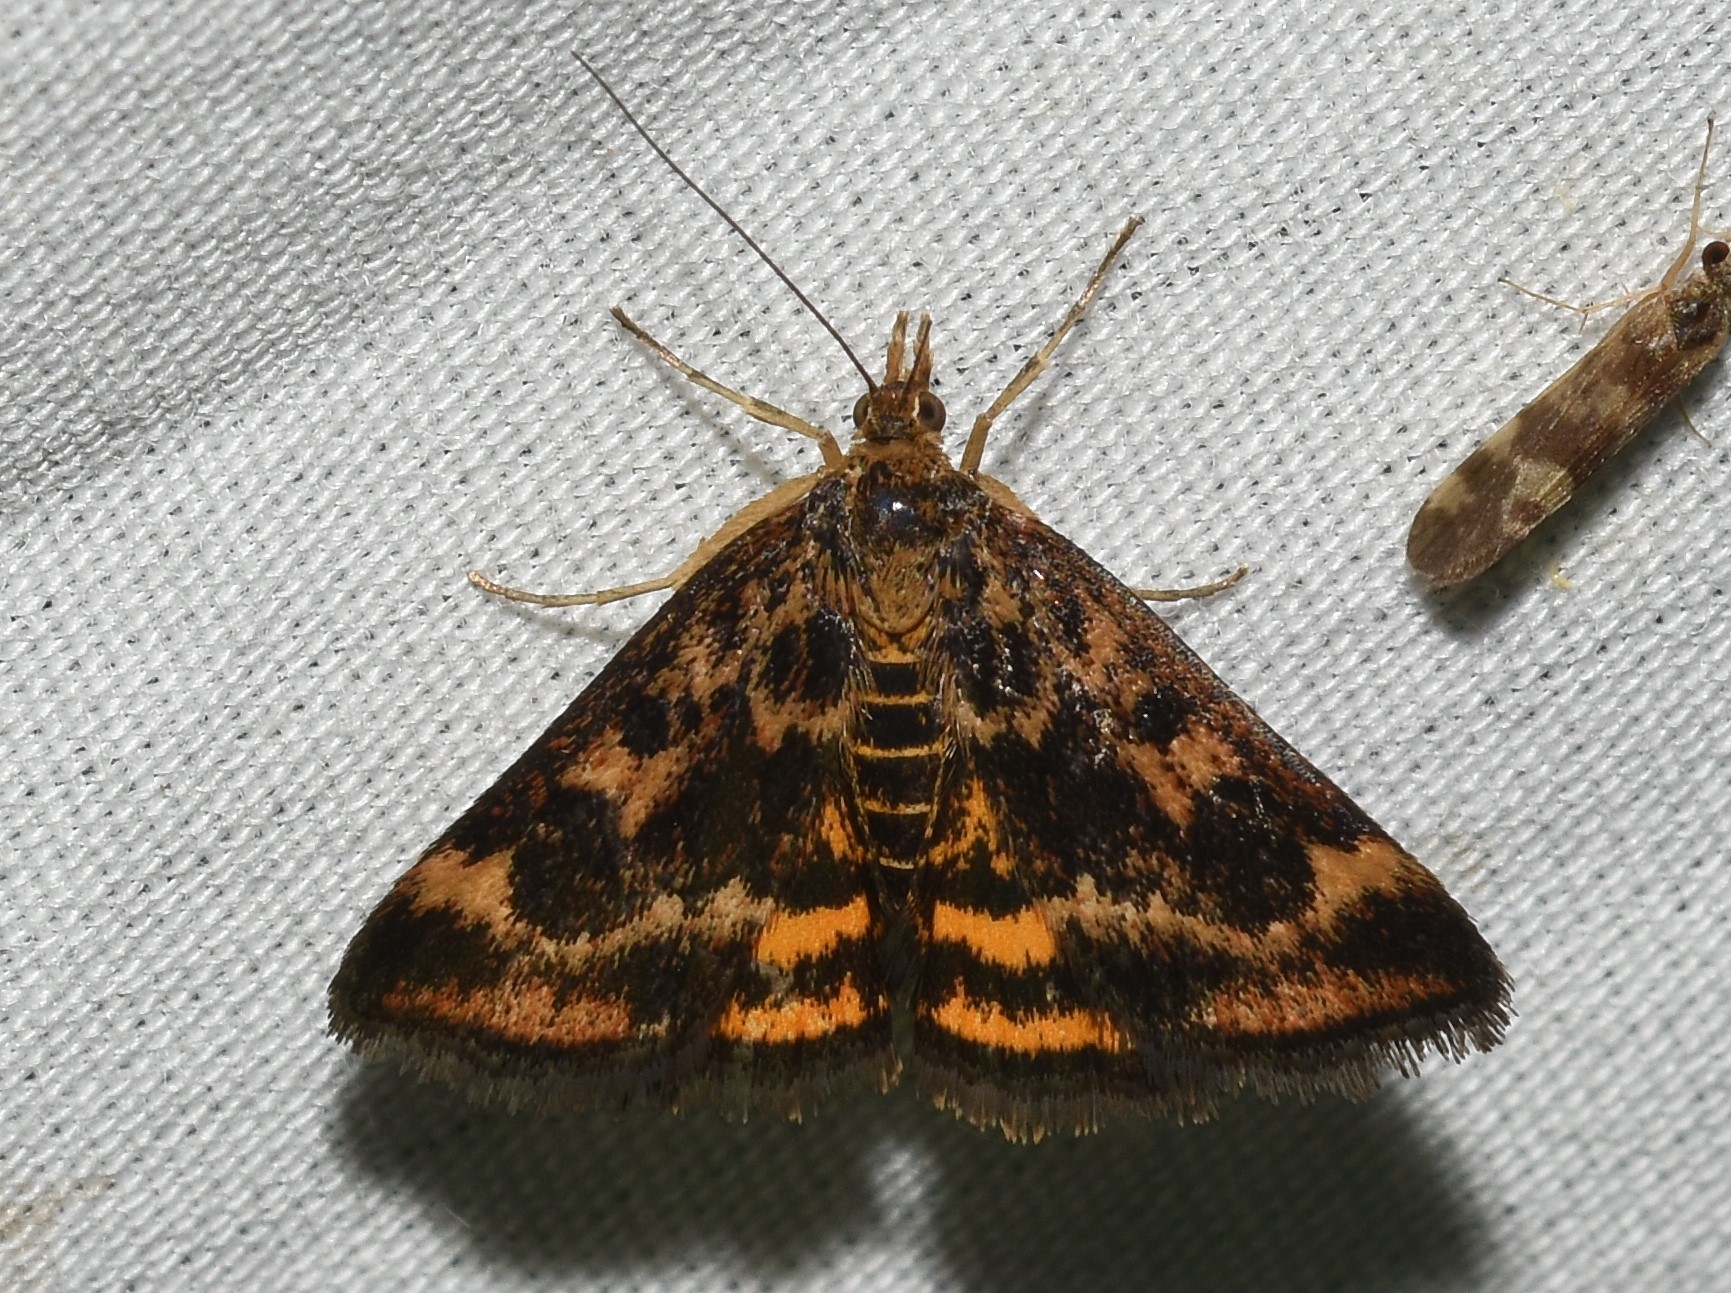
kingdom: Animalia
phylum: Arthropoda
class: Insecta
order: Lepidoptera
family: Crambidae
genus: Pyrausta
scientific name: Pyrausta subsequalis
